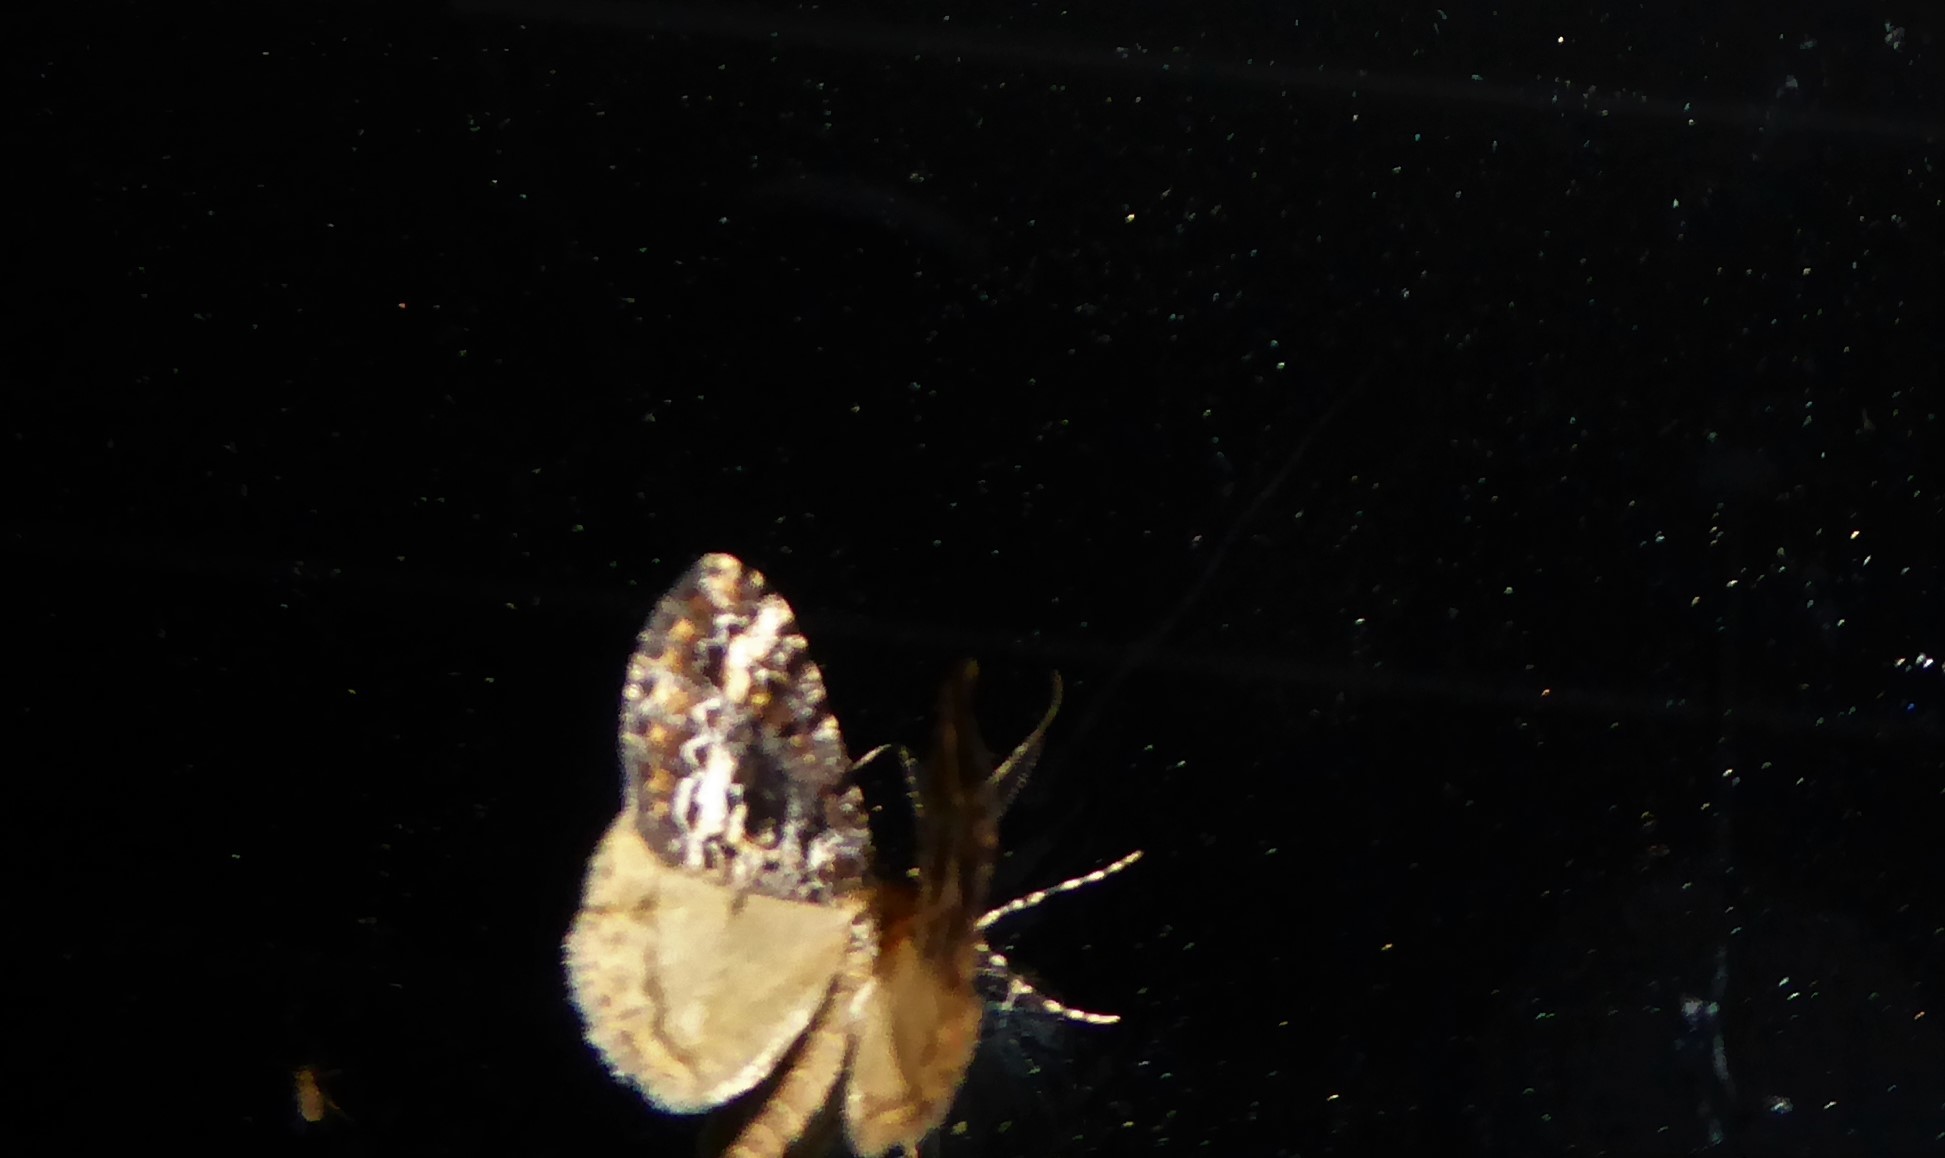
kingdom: Animalia
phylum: Arthropoda
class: Insecta
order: Lepidoptera
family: Geometridae
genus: Pseudocoremia
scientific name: Pseudocoremia leucelaea
